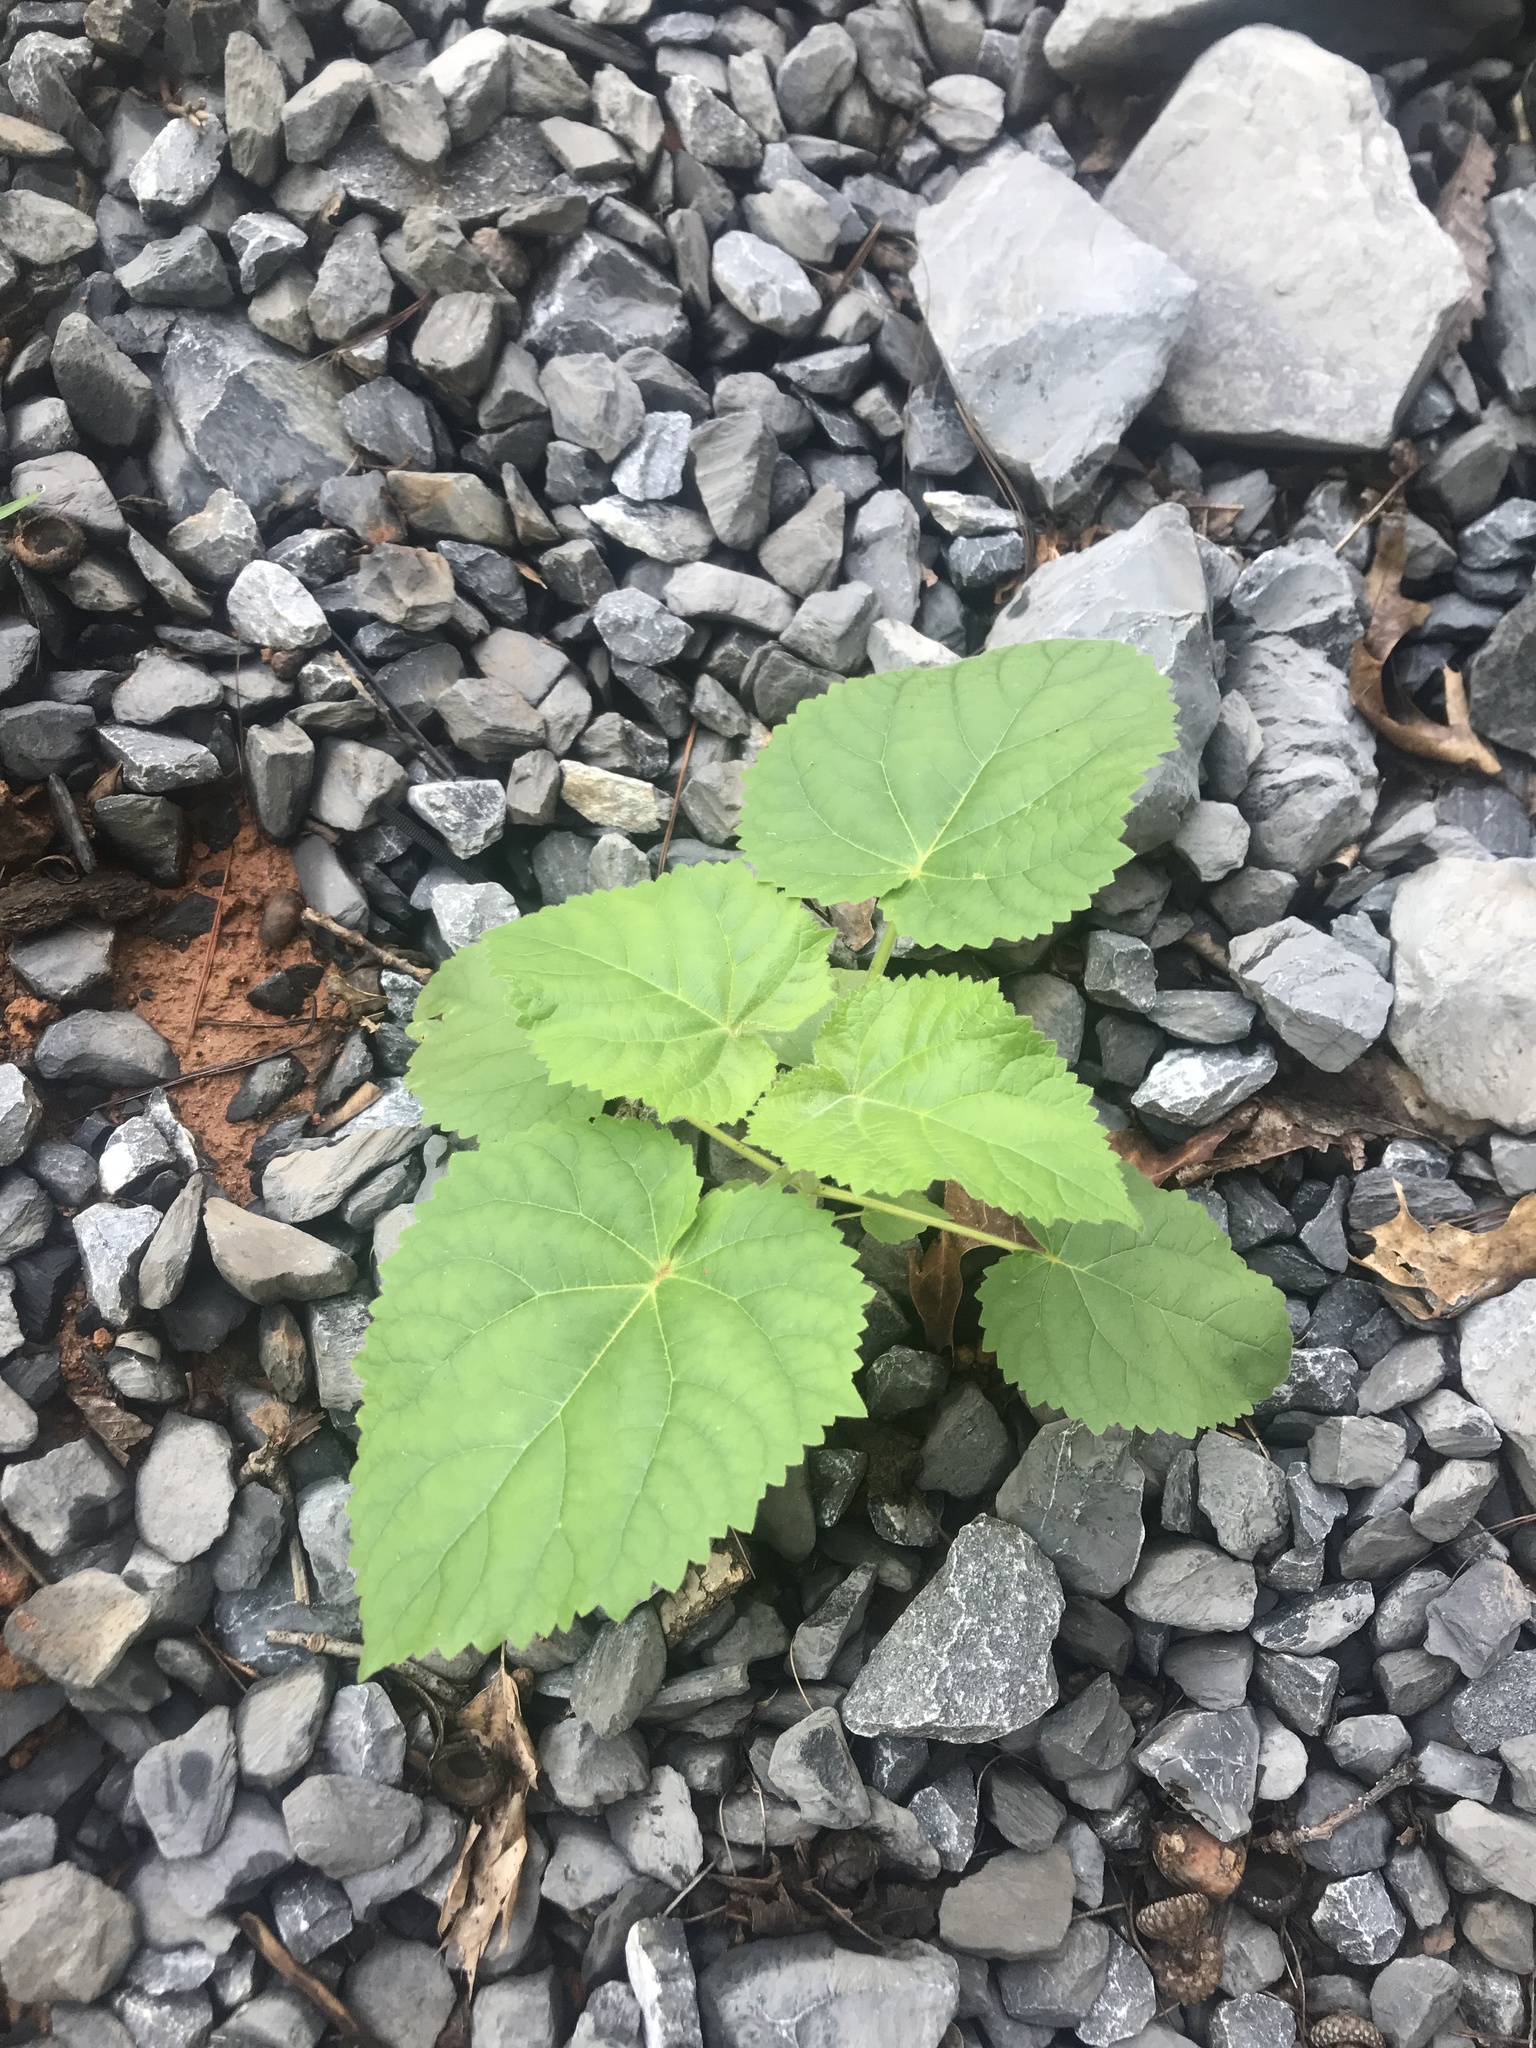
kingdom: Plantae
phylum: Tracheophyta
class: Magnoliopsida
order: Lamiales
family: Paulowniaceae
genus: Paulownia
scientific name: Paulownia tomentosa
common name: Foxglove-tree
